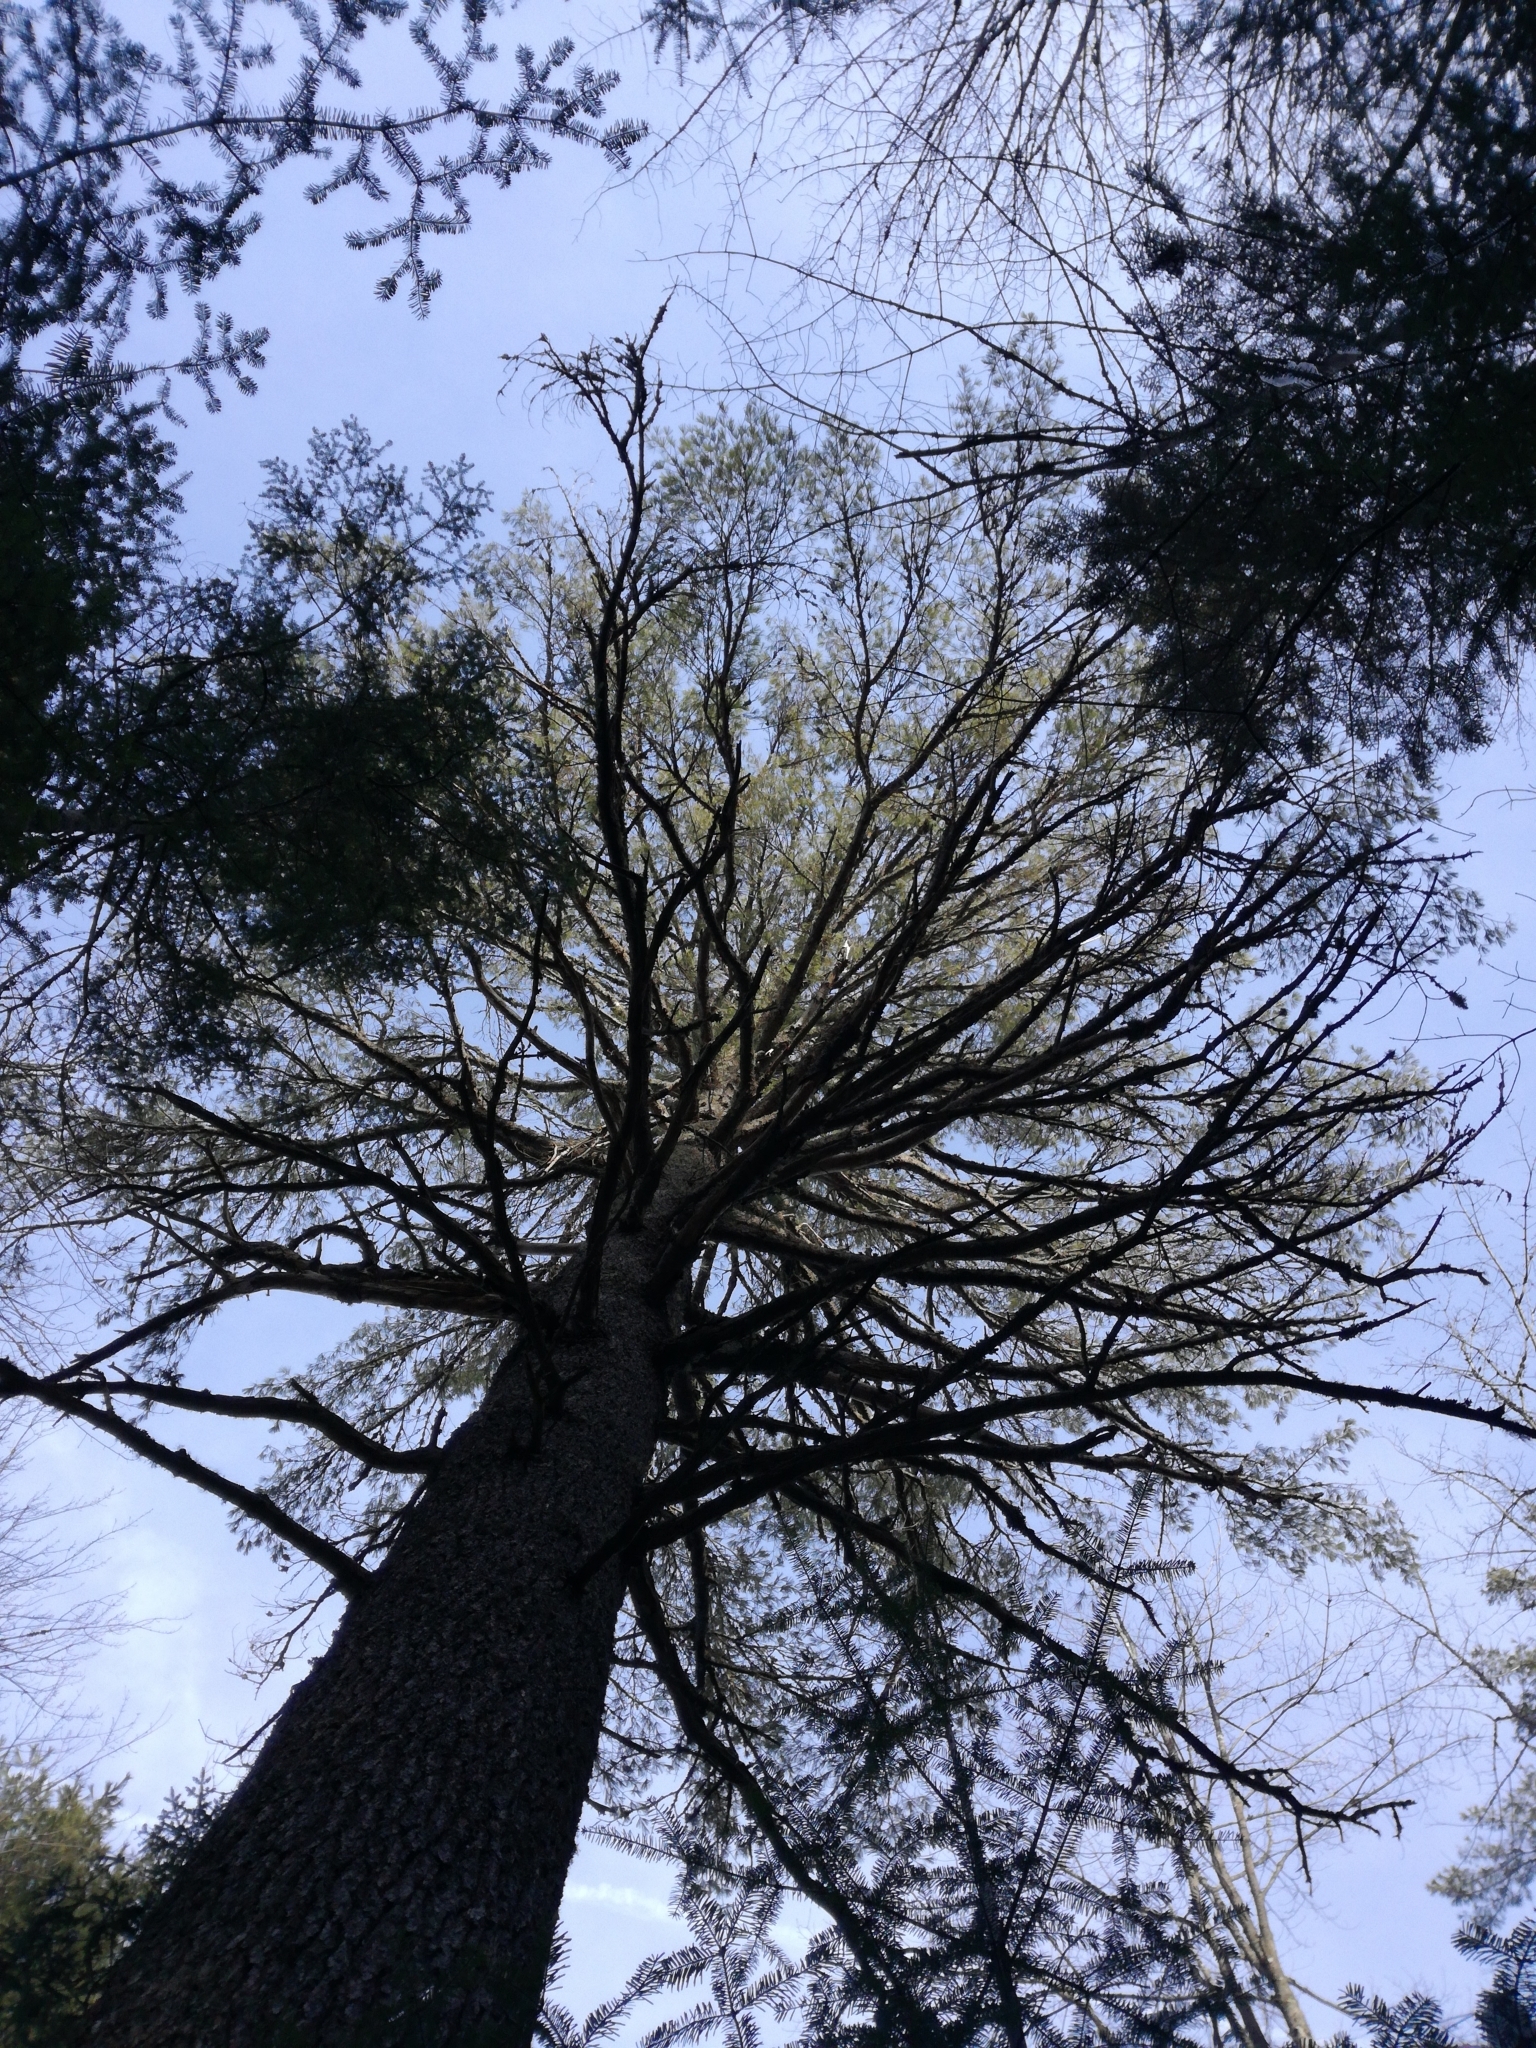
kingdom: Plantae
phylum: Tracheophyta
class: Pinopsida
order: Pinales
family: Pinaceae
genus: Pinus
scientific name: Pinus strobus
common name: Weymouth pine
